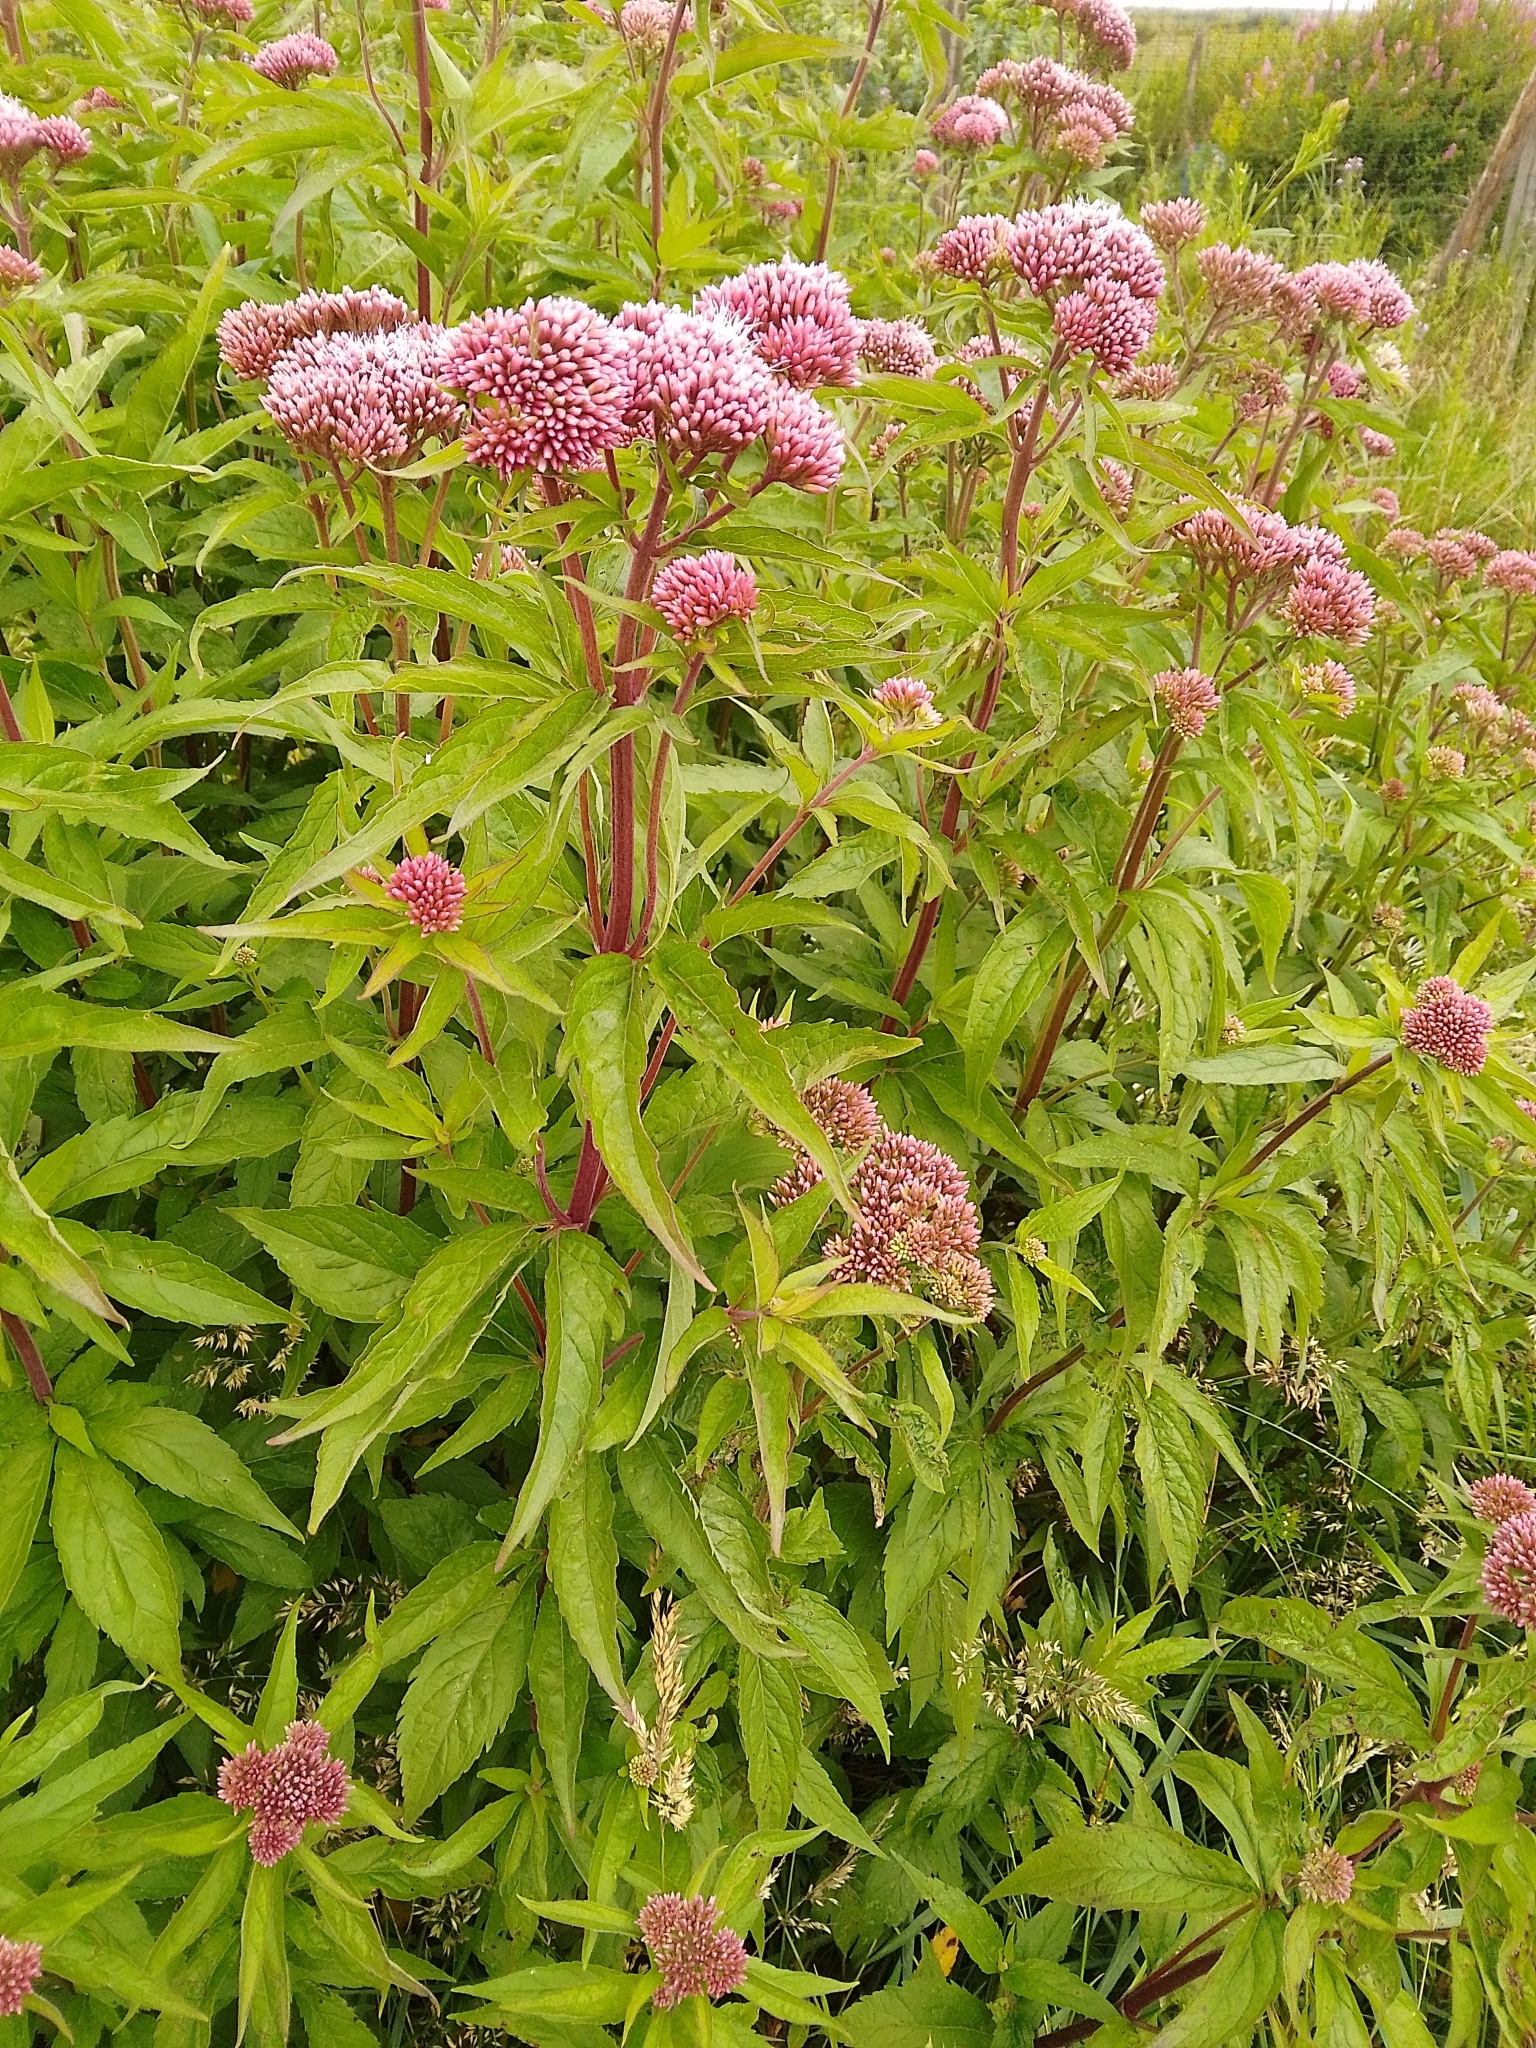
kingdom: Plantae
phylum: Tracheophyta
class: Magnoliopsida
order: Asterales
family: Asteraceae
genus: Eupatorium
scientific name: Eupatorium cannabinum
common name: Hemp-agrimony
